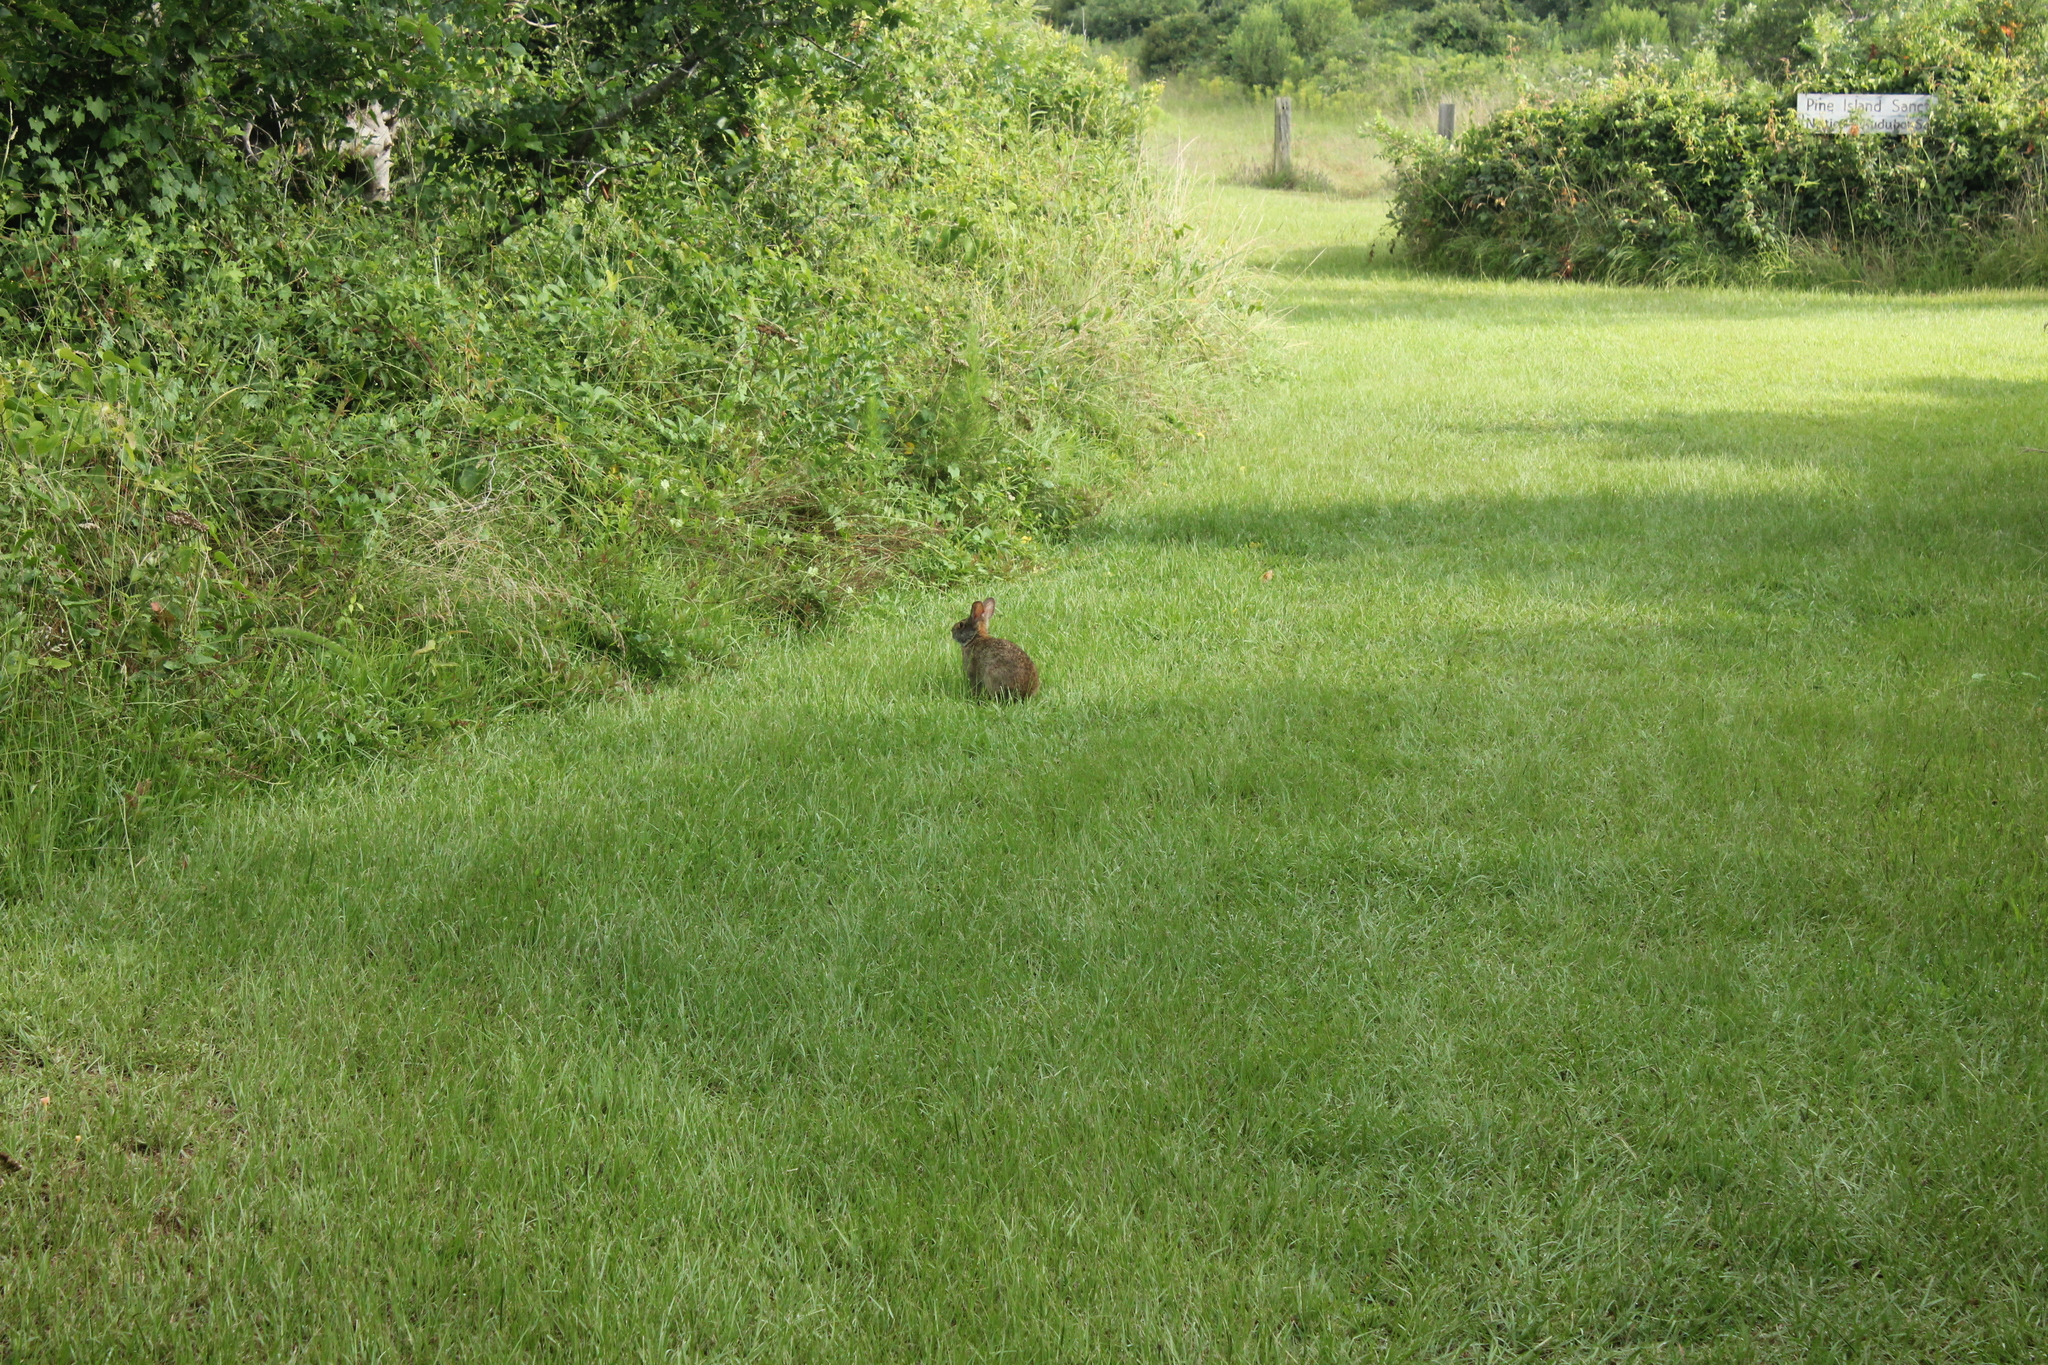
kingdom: Animalia
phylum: Chordata
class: Mammalia
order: Lagomorpha
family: Leporidae
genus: Sylvilagus
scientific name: Sylvilagus palustris
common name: Marsh rabbit
